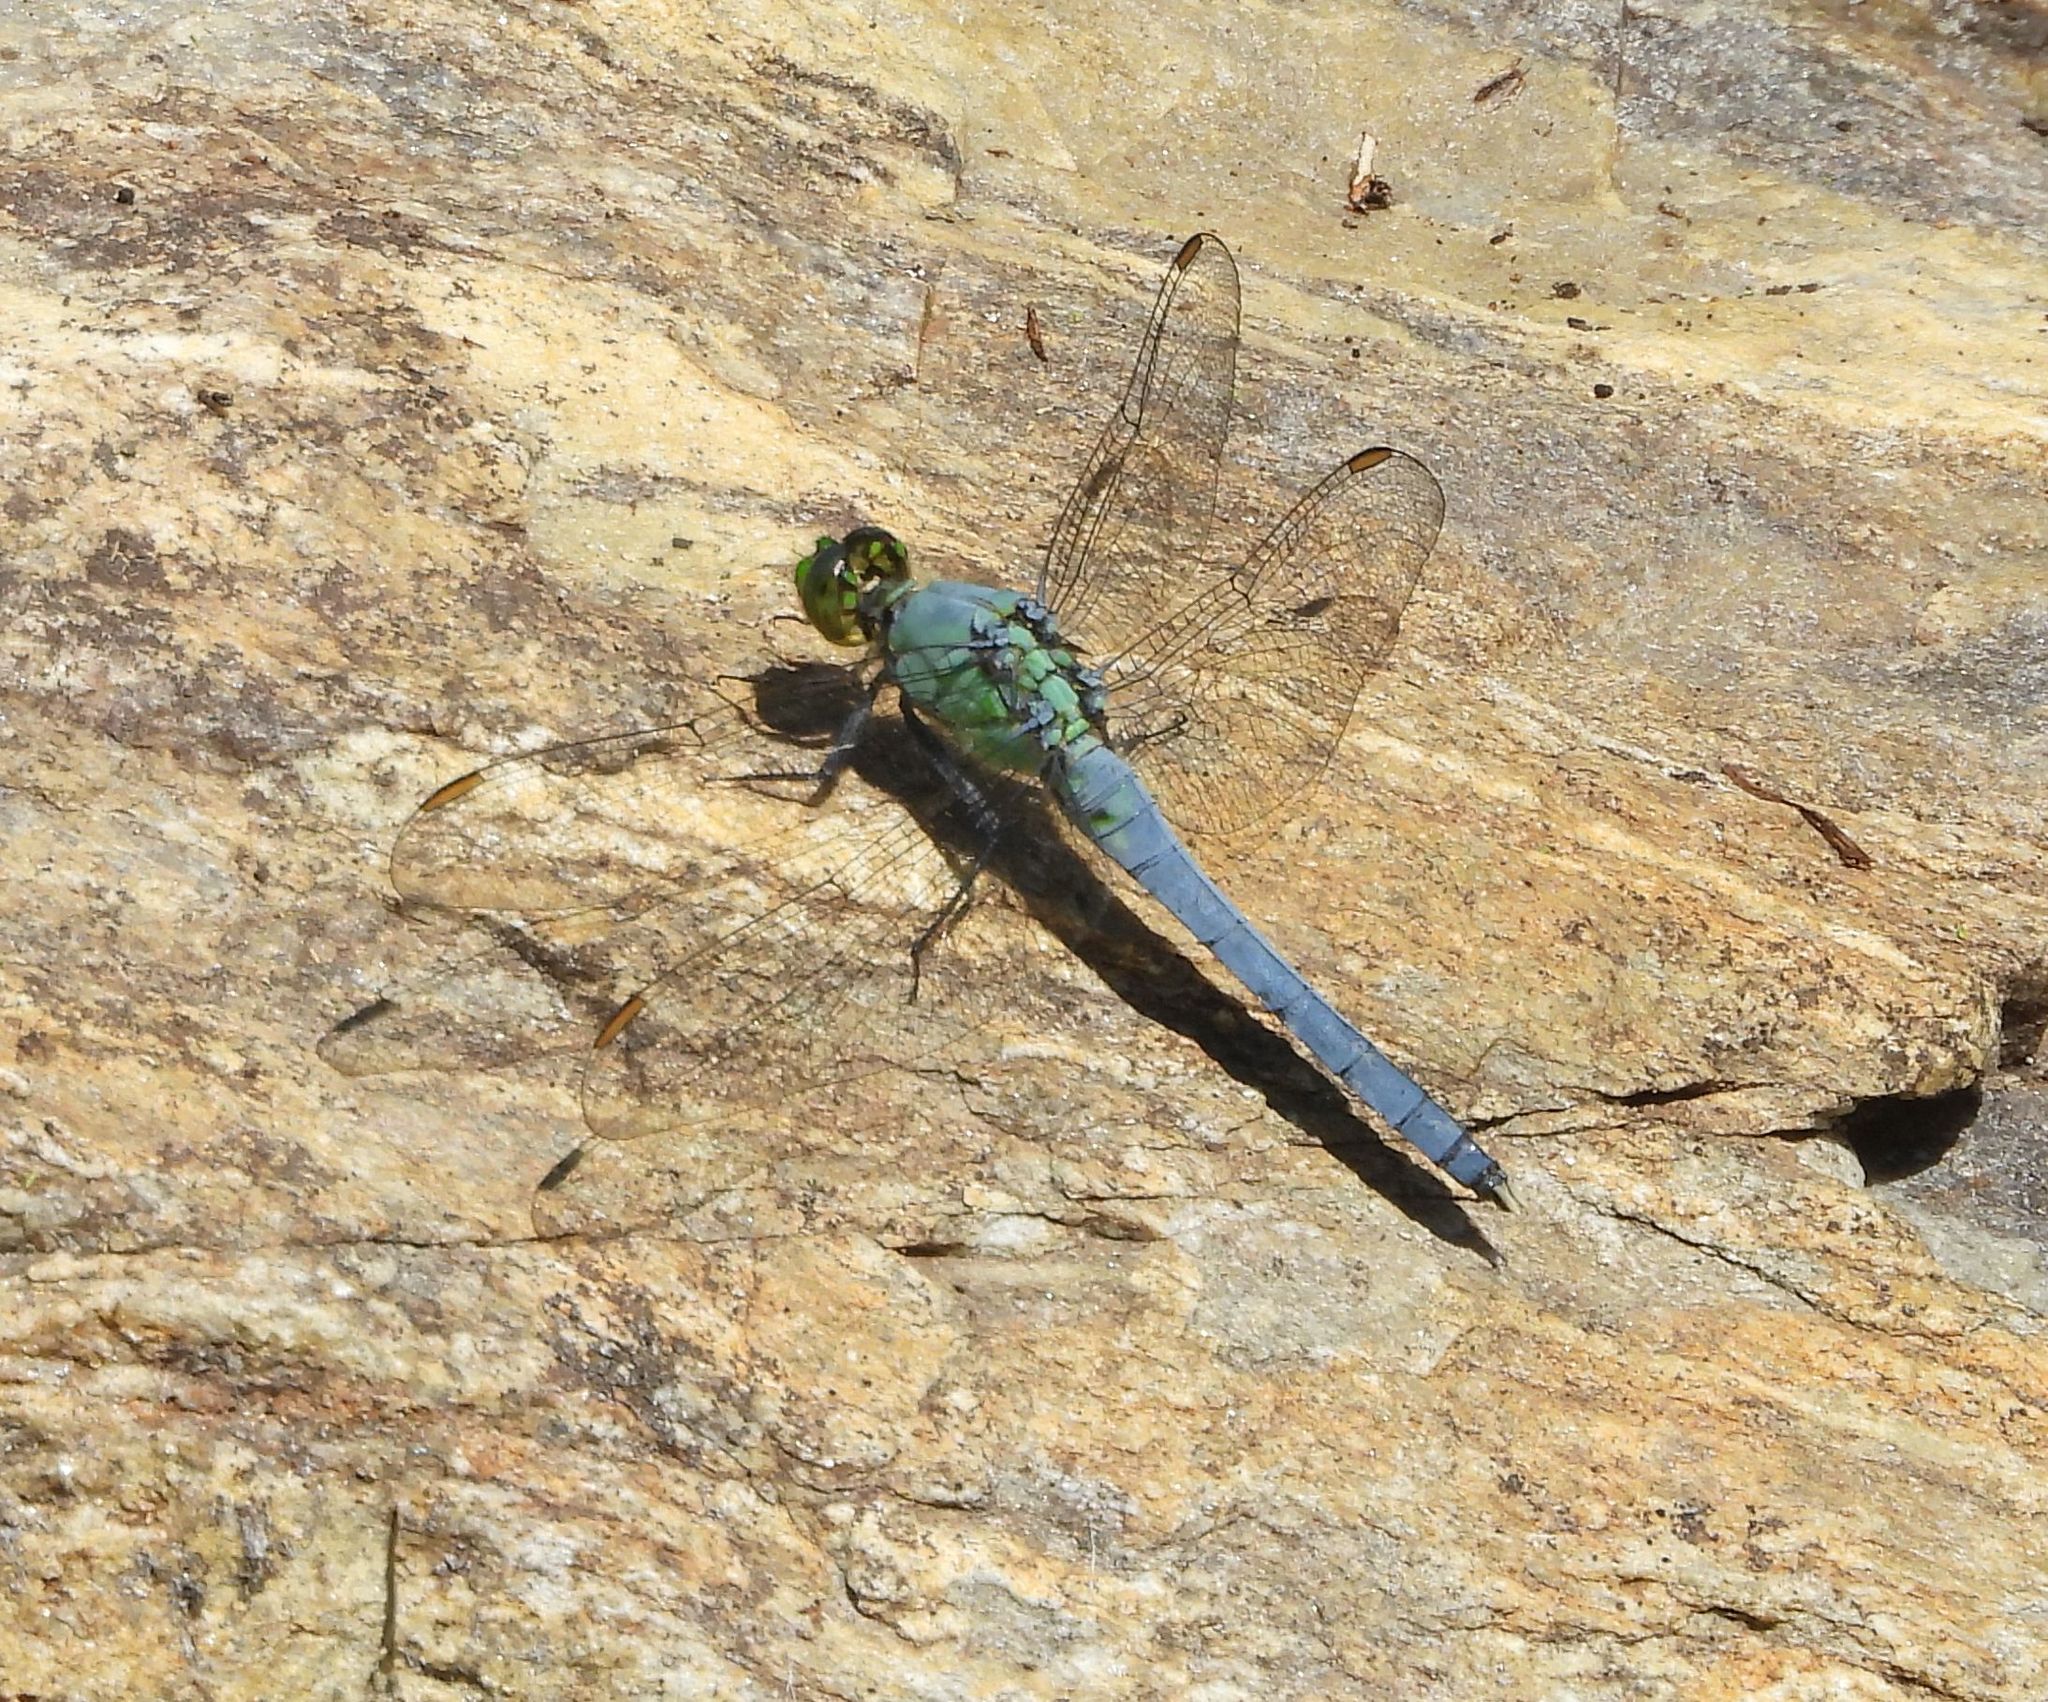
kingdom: Animalia
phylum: Arthropoda
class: Insecta
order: Odonata
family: Libellulidae
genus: Erythemis
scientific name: Erythemis simplicicollis
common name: Eastern pondhawk
